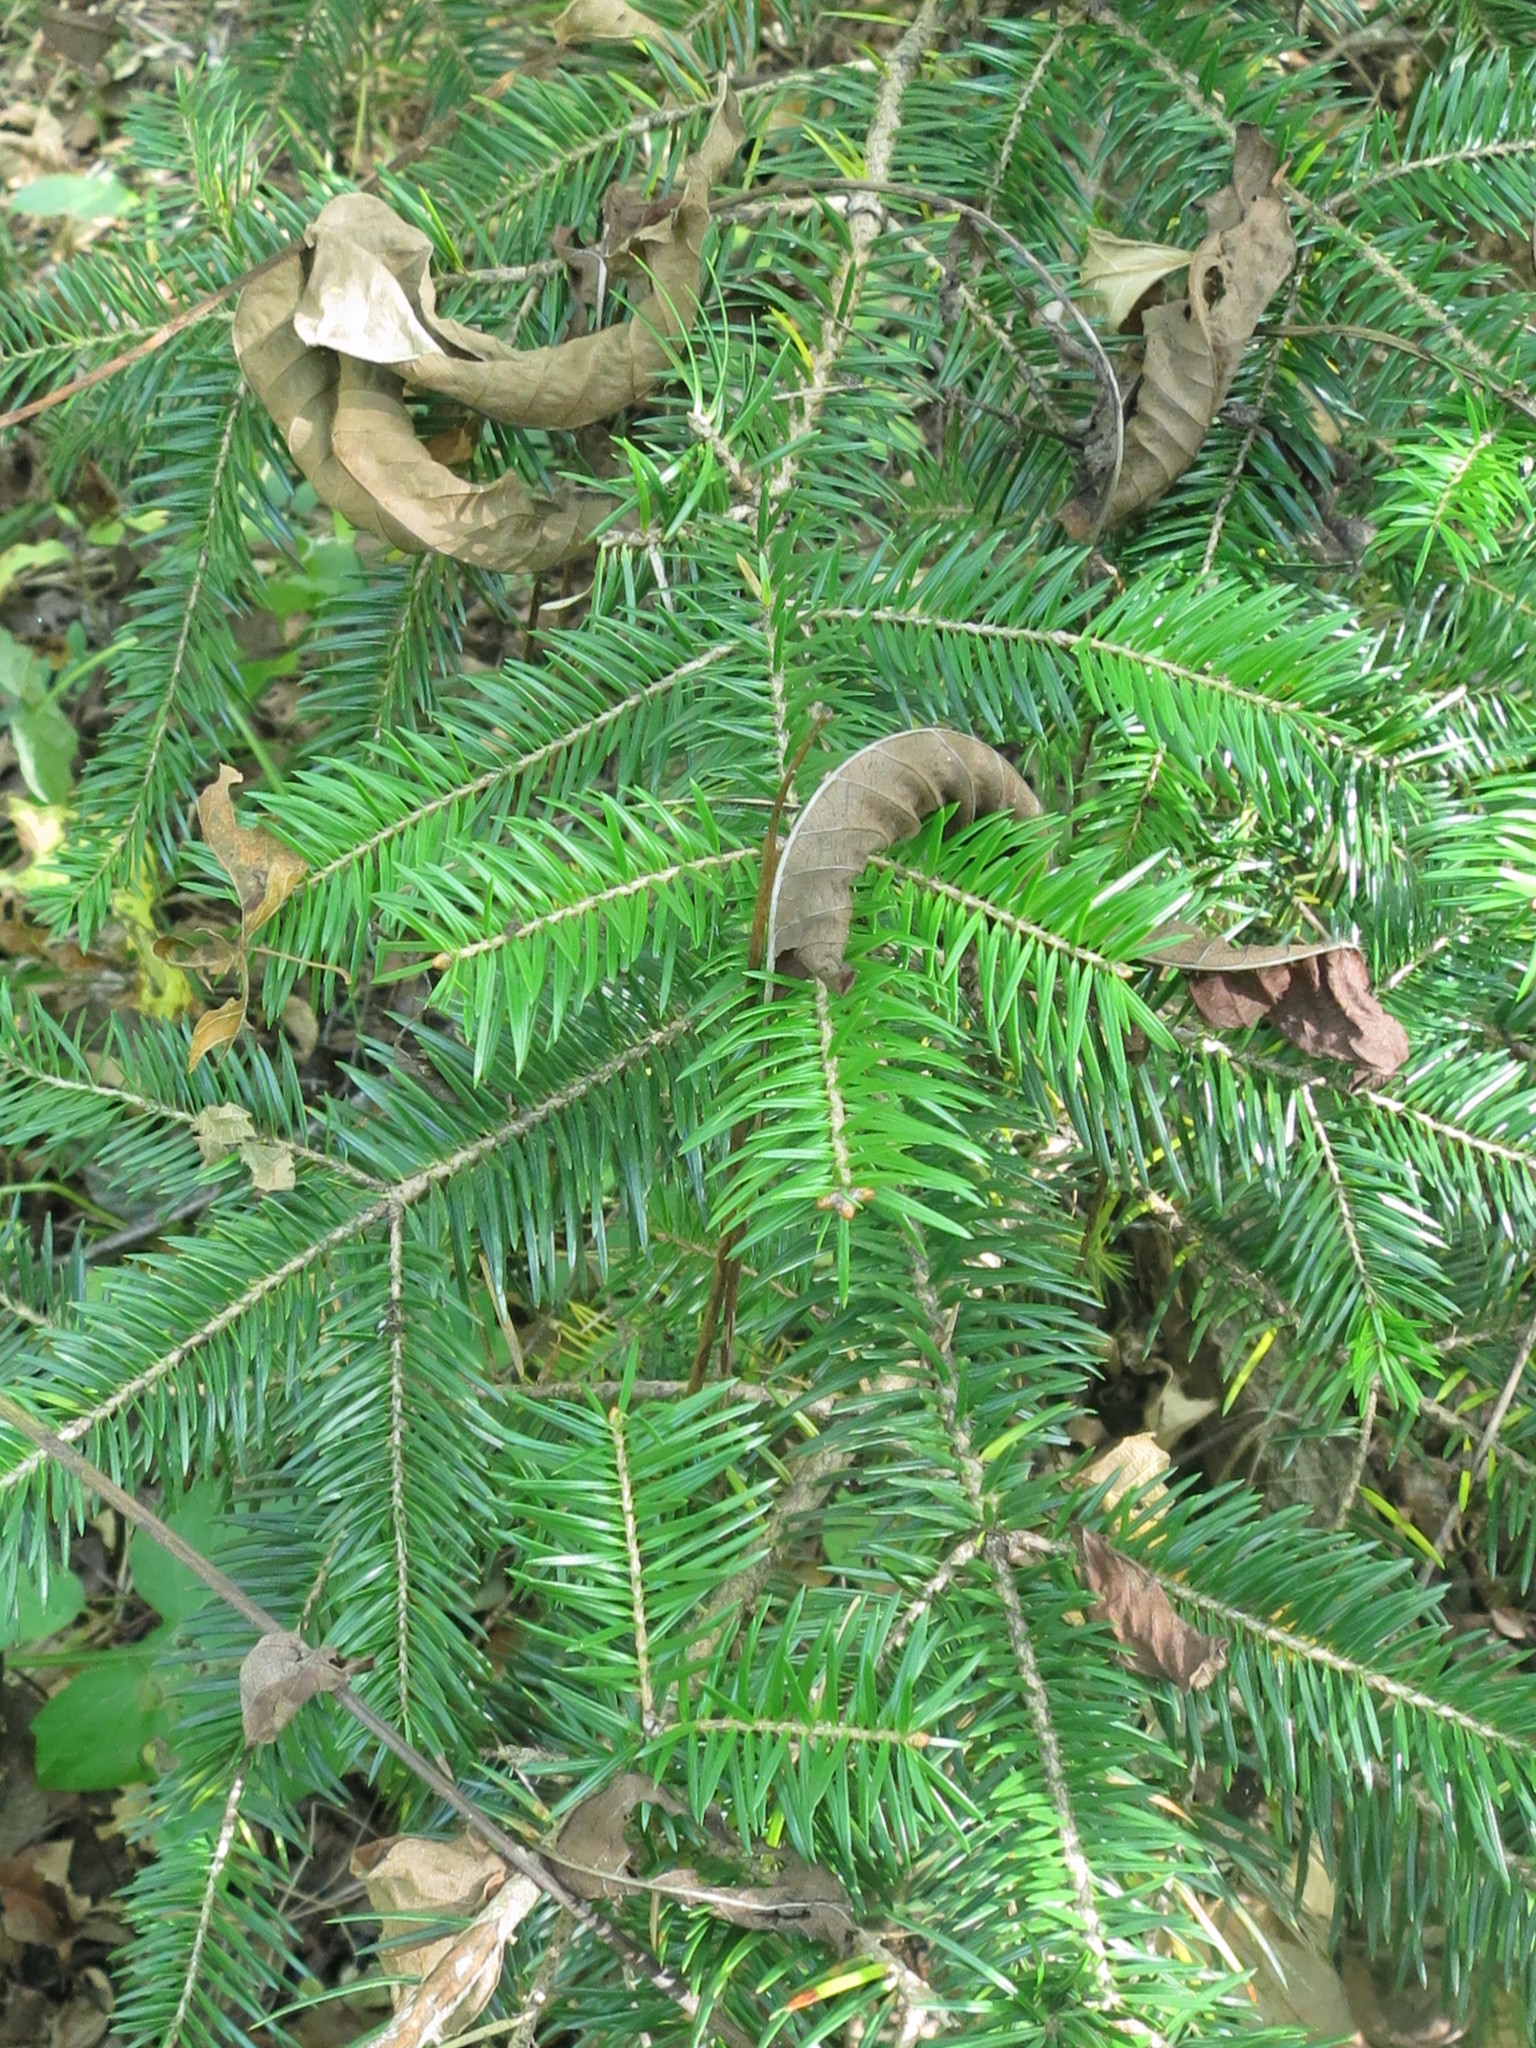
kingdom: Plantae
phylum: Tracheophyta
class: Pinopsida
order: Pinales
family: Pinaceae
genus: Abies
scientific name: Abies holophylla
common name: Manchurian fir
